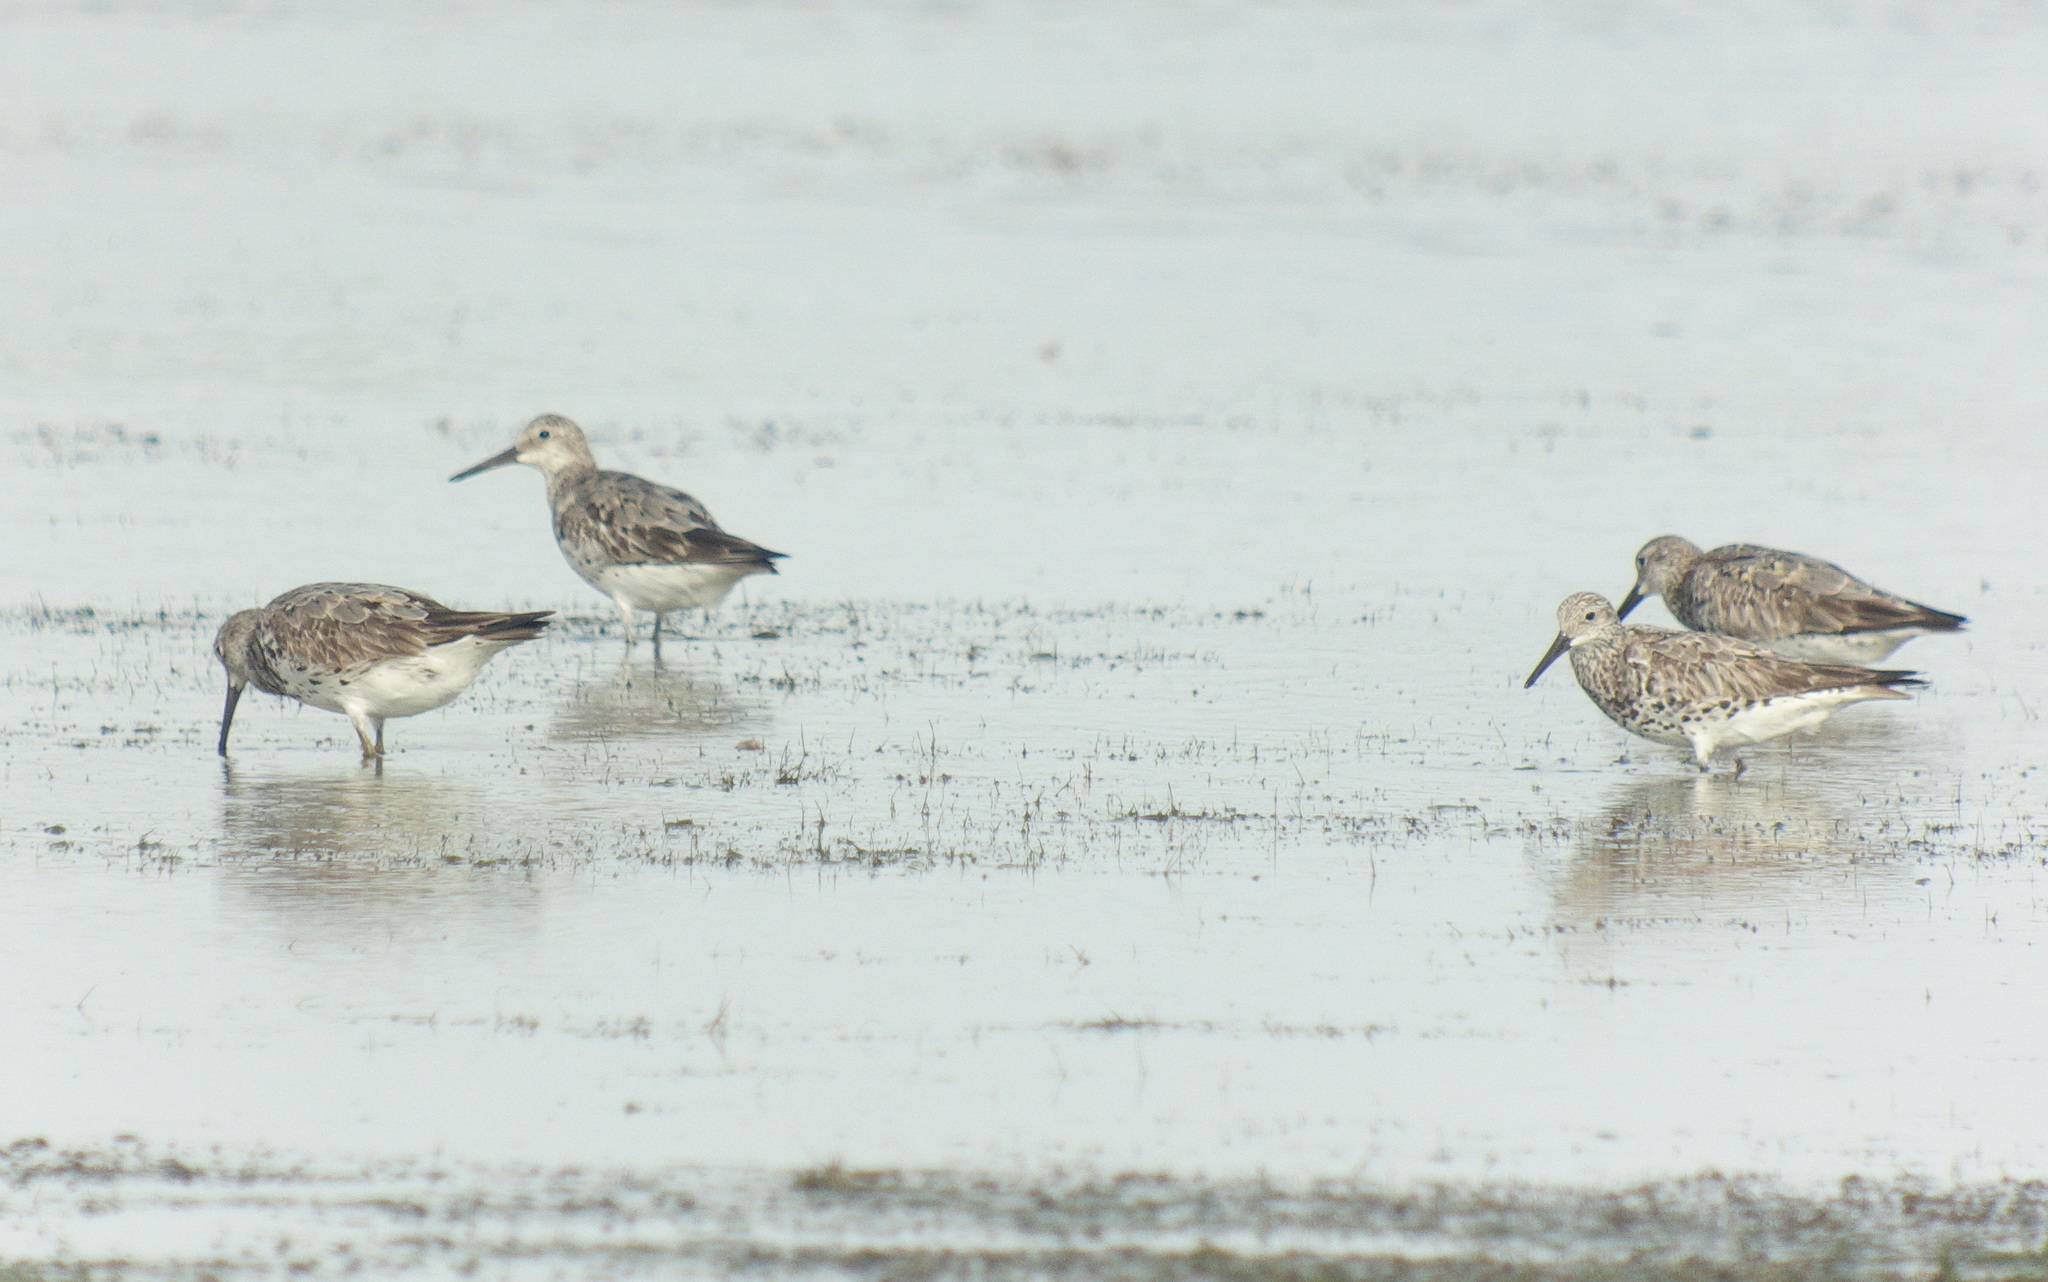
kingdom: Animalia
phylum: Chordata
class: Aves
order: Charadriiformes
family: Scolopacidae
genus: Calidris
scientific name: Calidris tenuirostris
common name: Great knot
